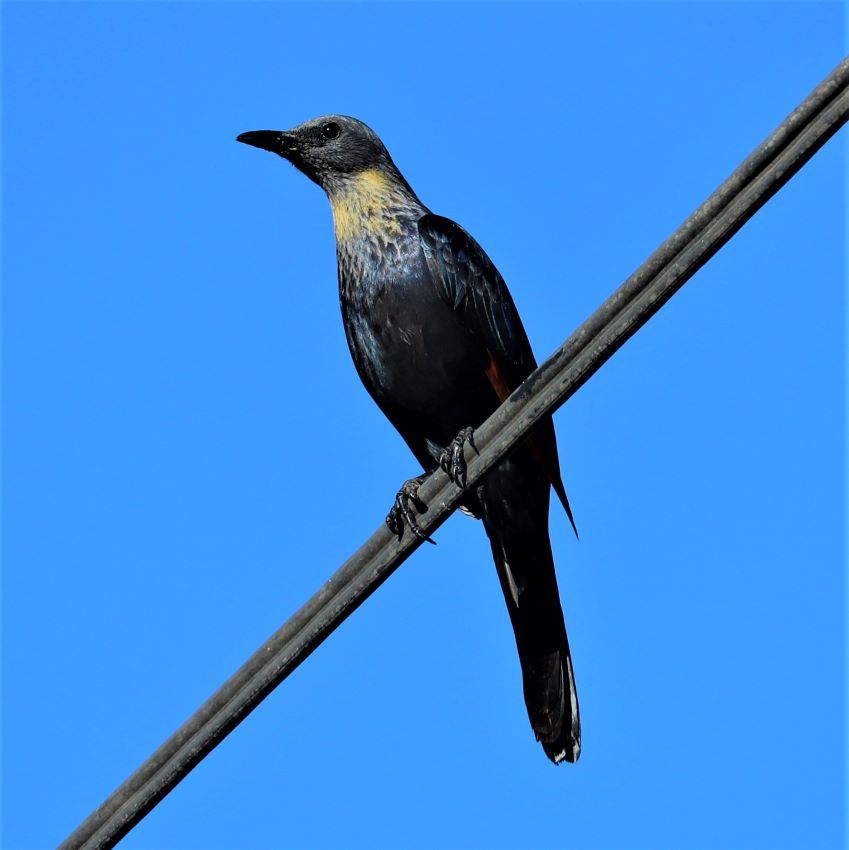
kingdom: Animalia
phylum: Chordata
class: Aves
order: Passeriformes
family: Sturnidae
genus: Onychognathus
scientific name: Onychognathus morio
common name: Red-winged starling
